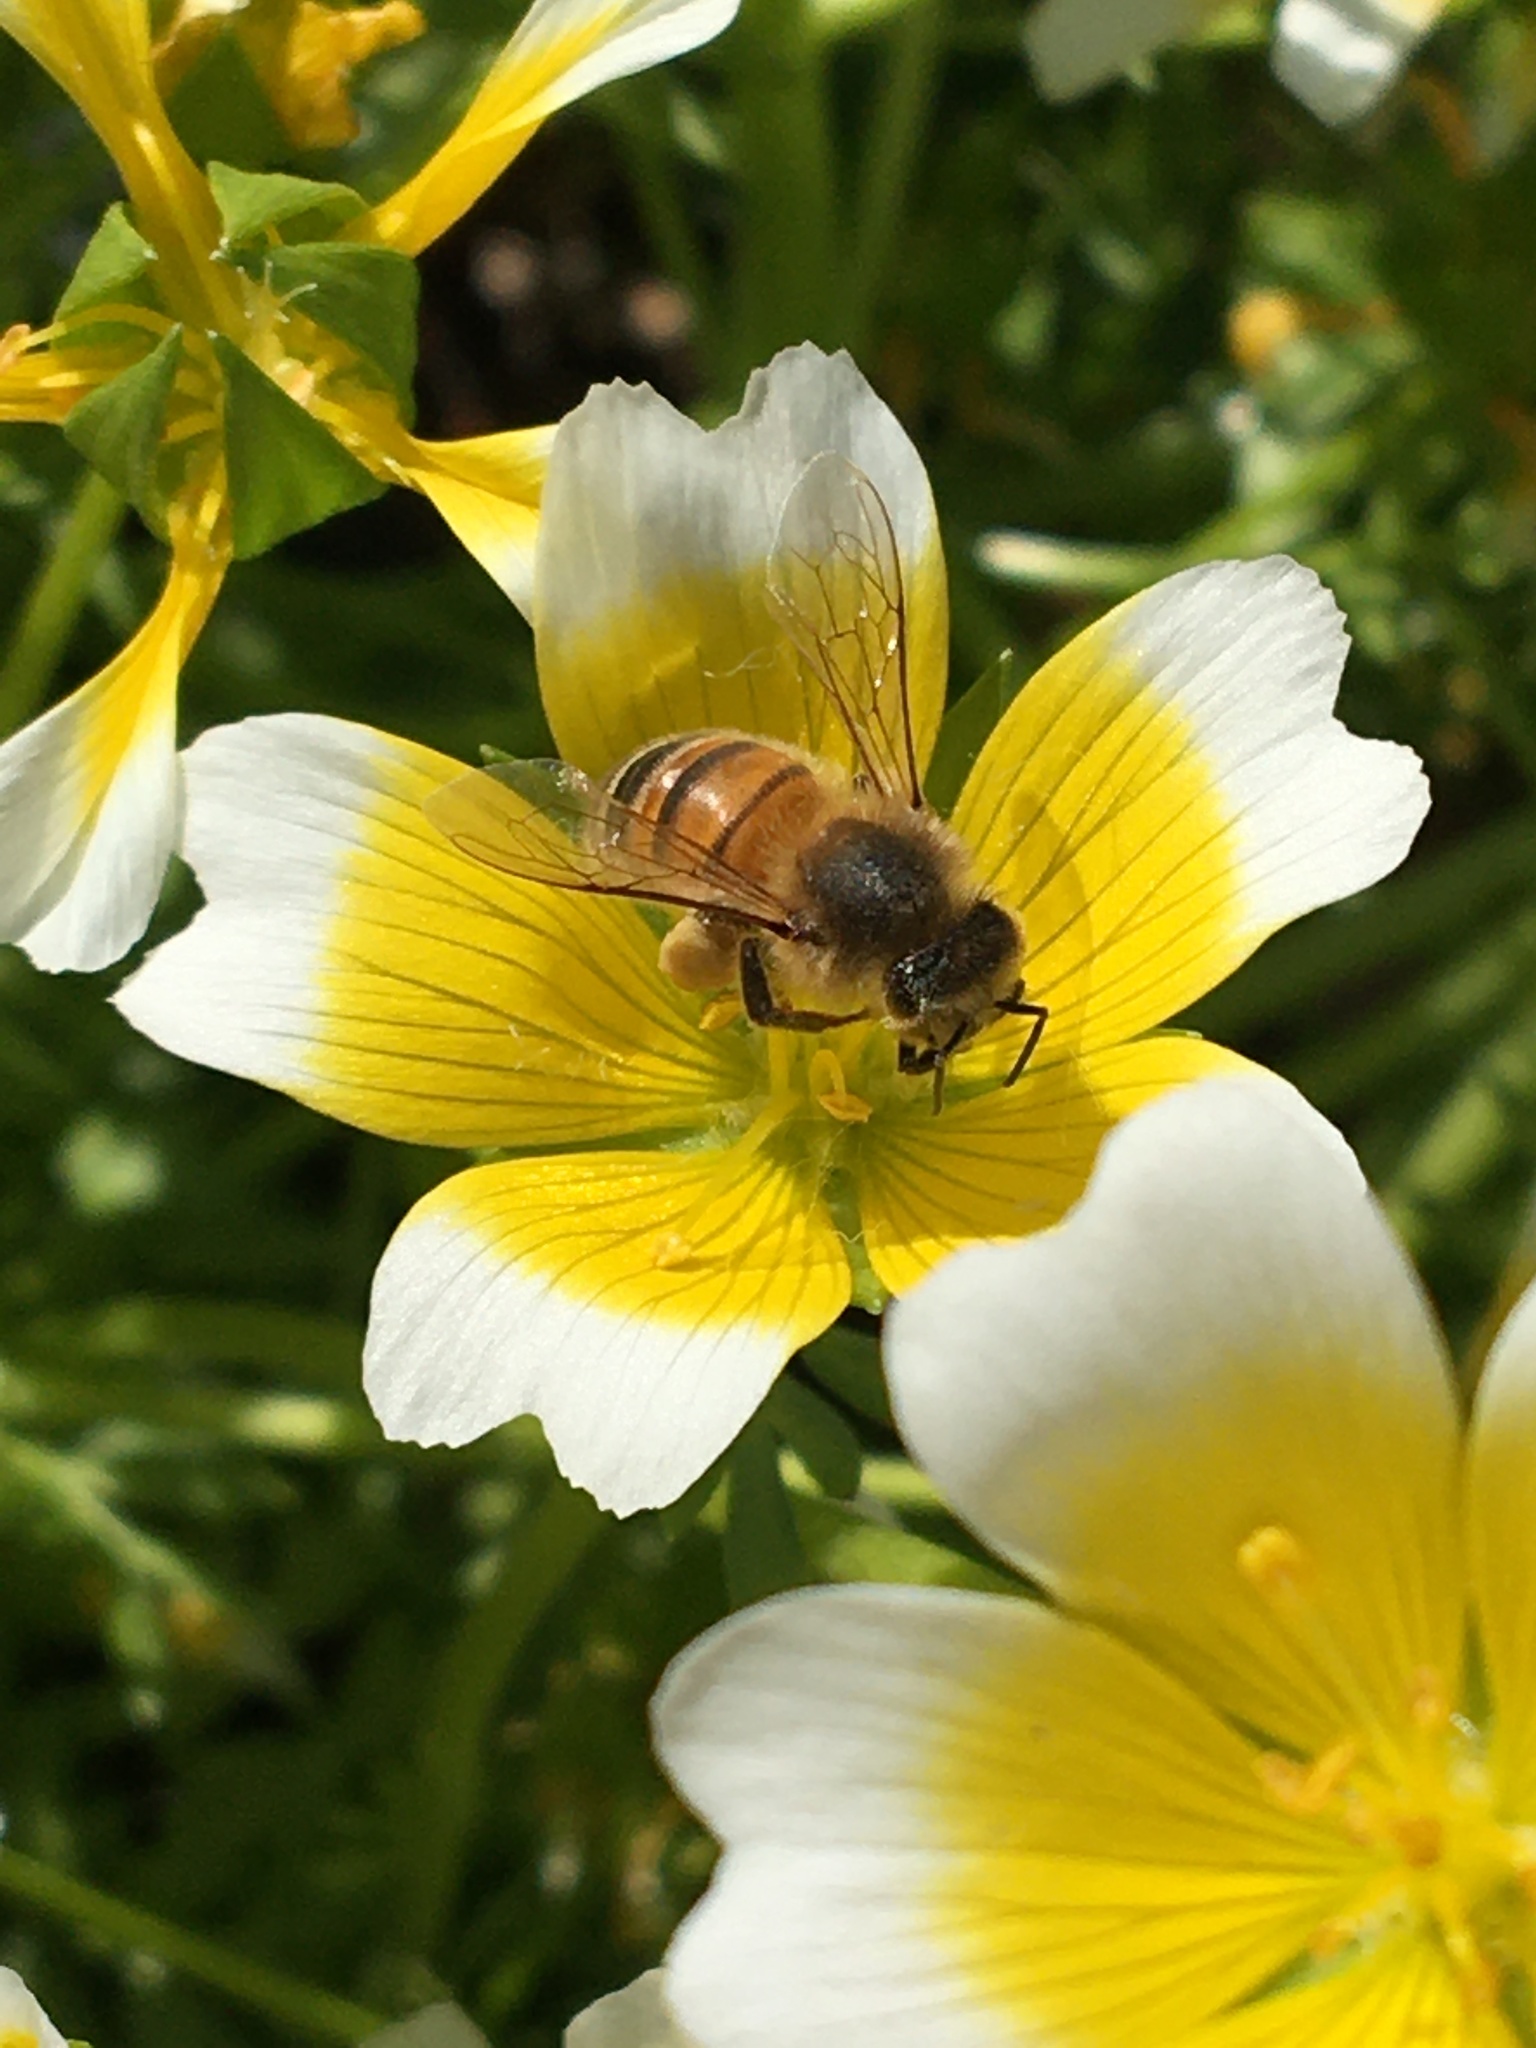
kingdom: Animalia
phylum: Arthropoda
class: Insecta
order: Hymenoptera
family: Apidae
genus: Apis
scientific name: Apis mellifera
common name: Honey bee
